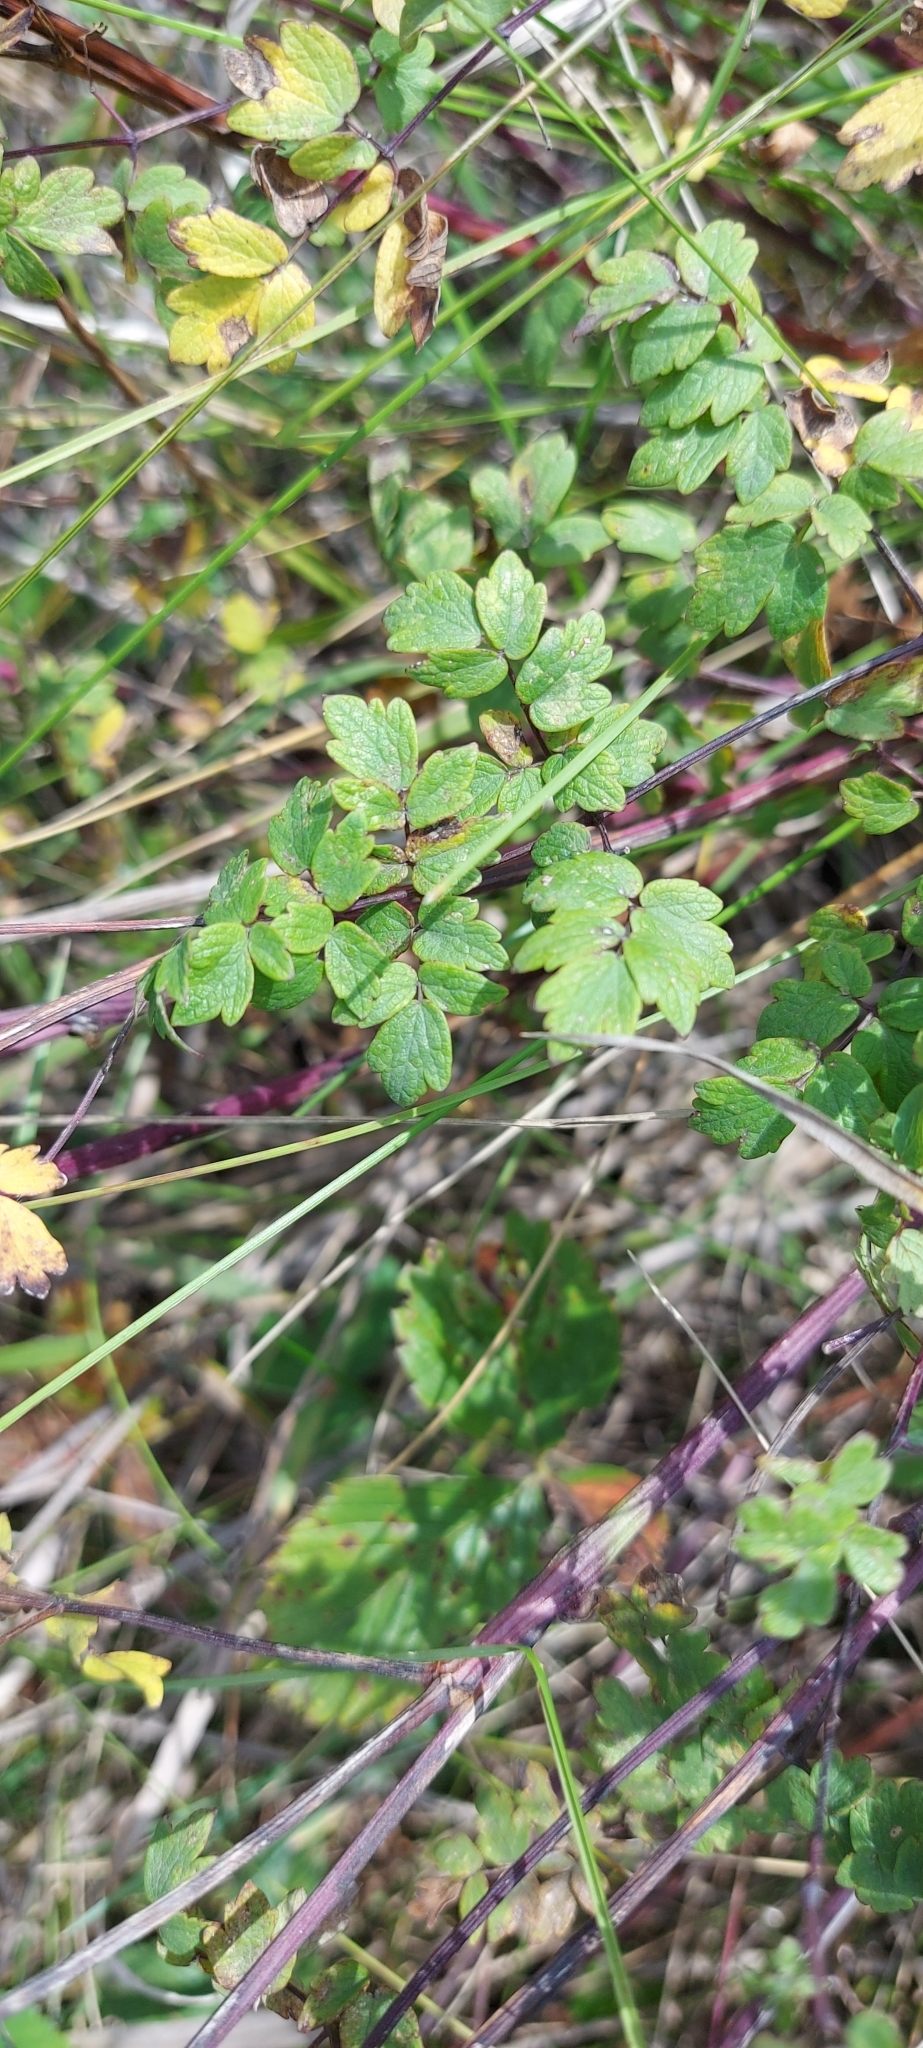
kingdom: Plantae
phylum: Tracheophyta
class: Magnoliopsida
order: Ranunculales
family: Ranunculaceae
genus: Thalictrum
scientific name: Thalictrum minus
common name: Lesser meadow-rue
